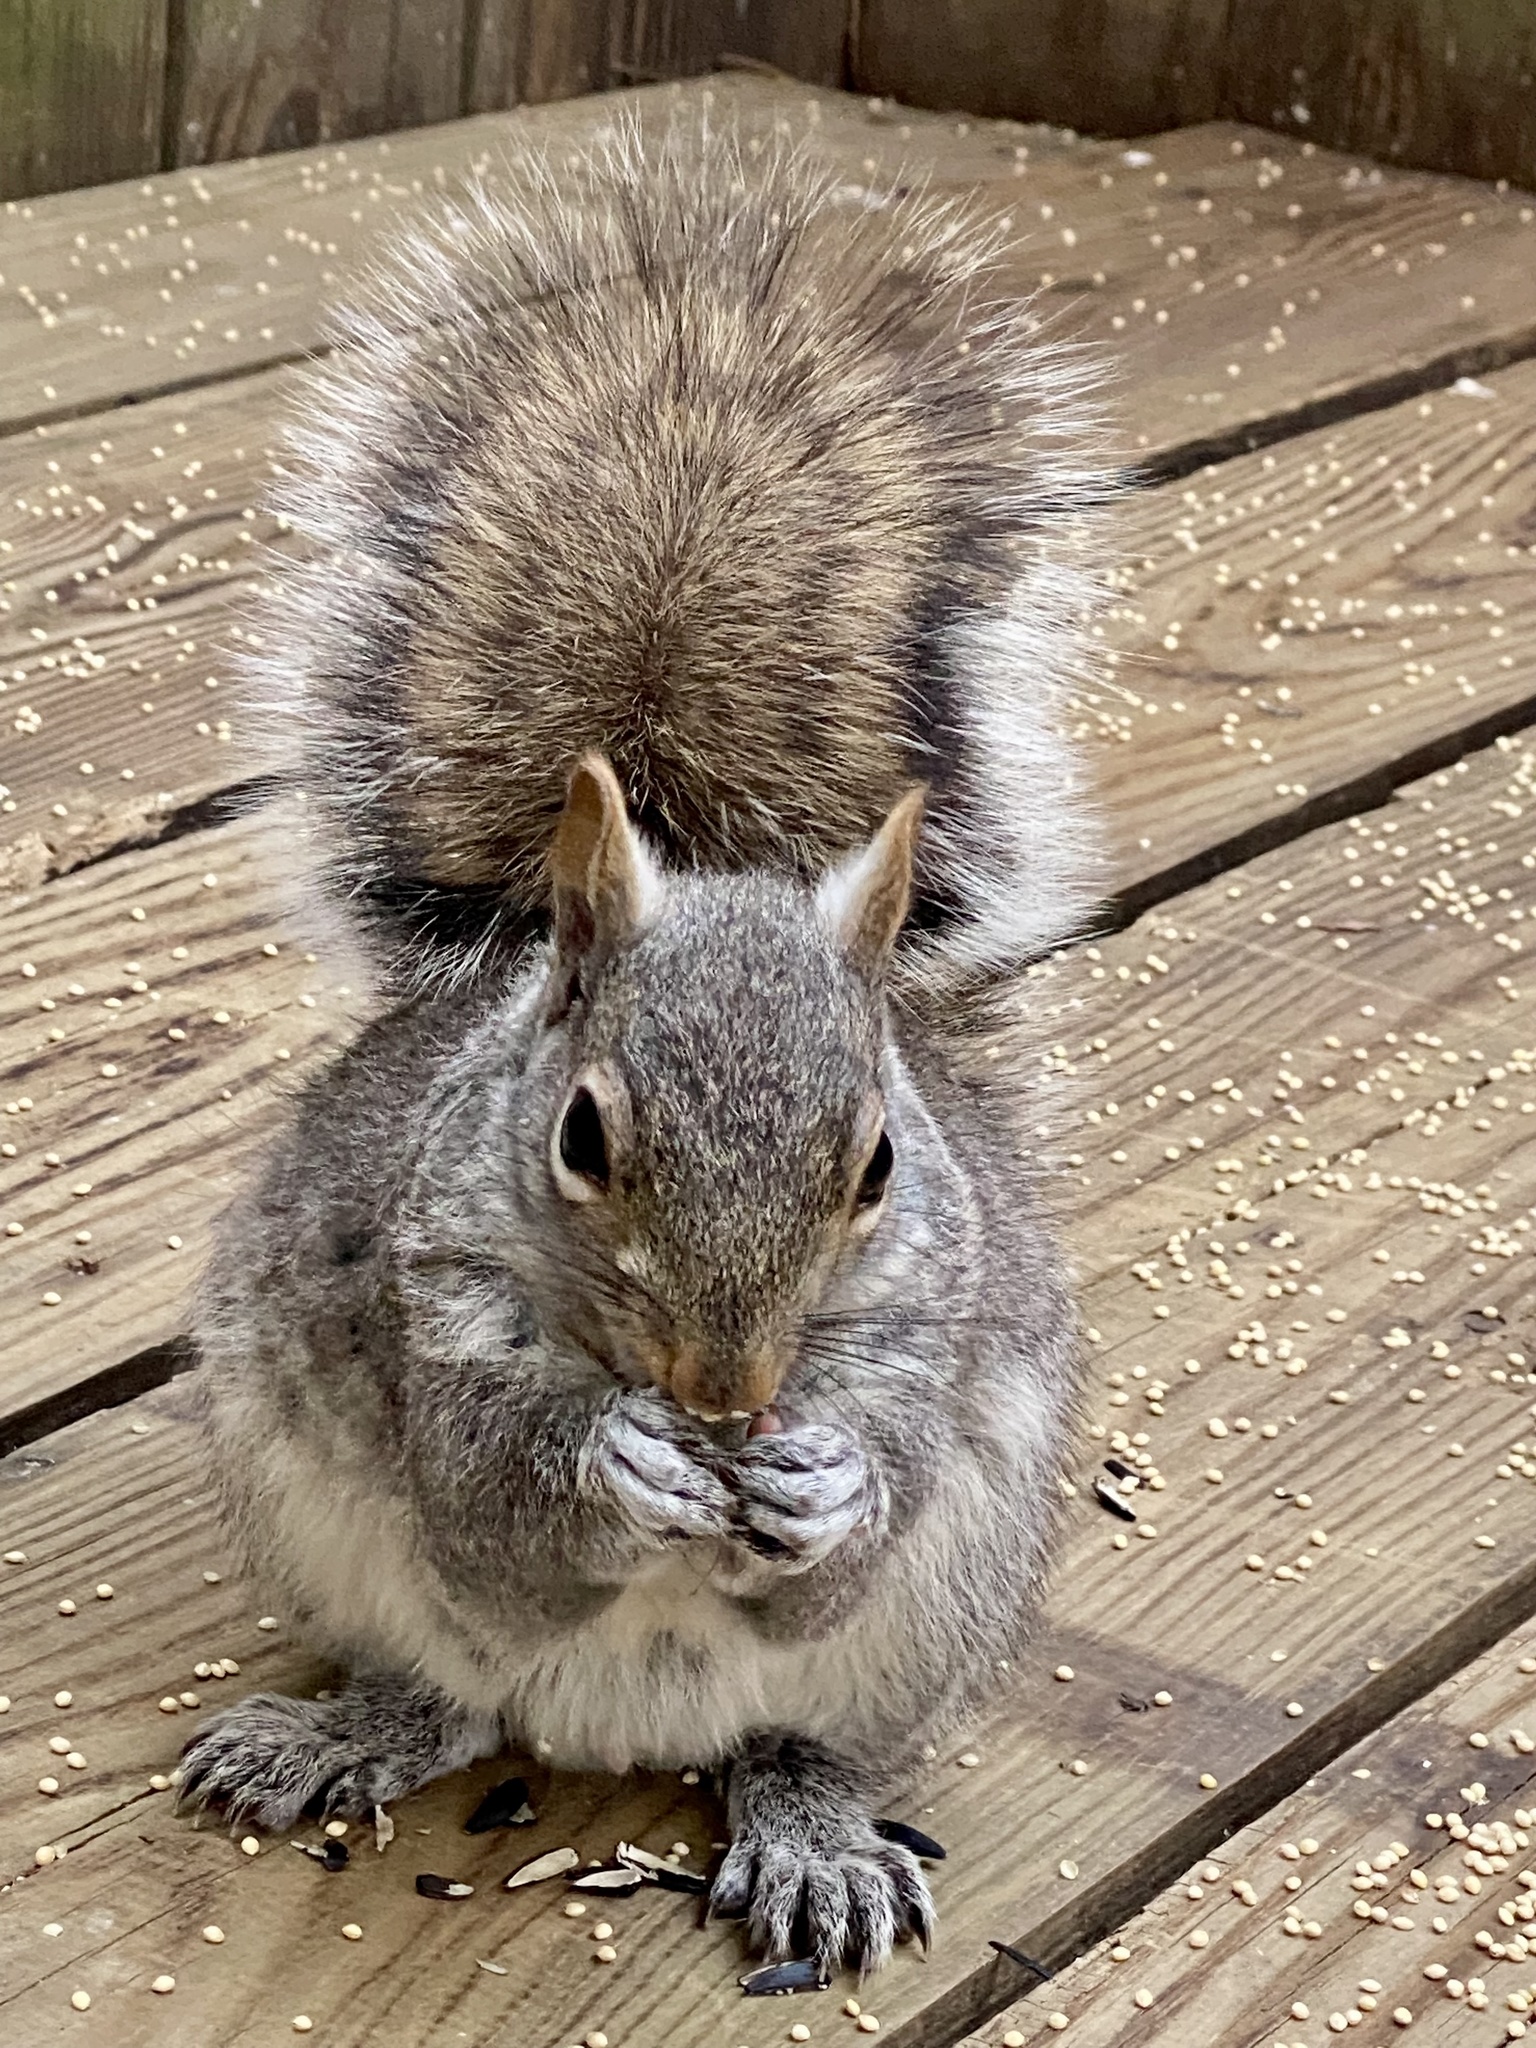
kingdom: Animalia
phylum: Chordata
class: Mammalia
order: Rodentia
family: Sciuridae
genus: Sciurus
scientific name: Sciurus carolinensis
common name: Eastern gray squirrel
